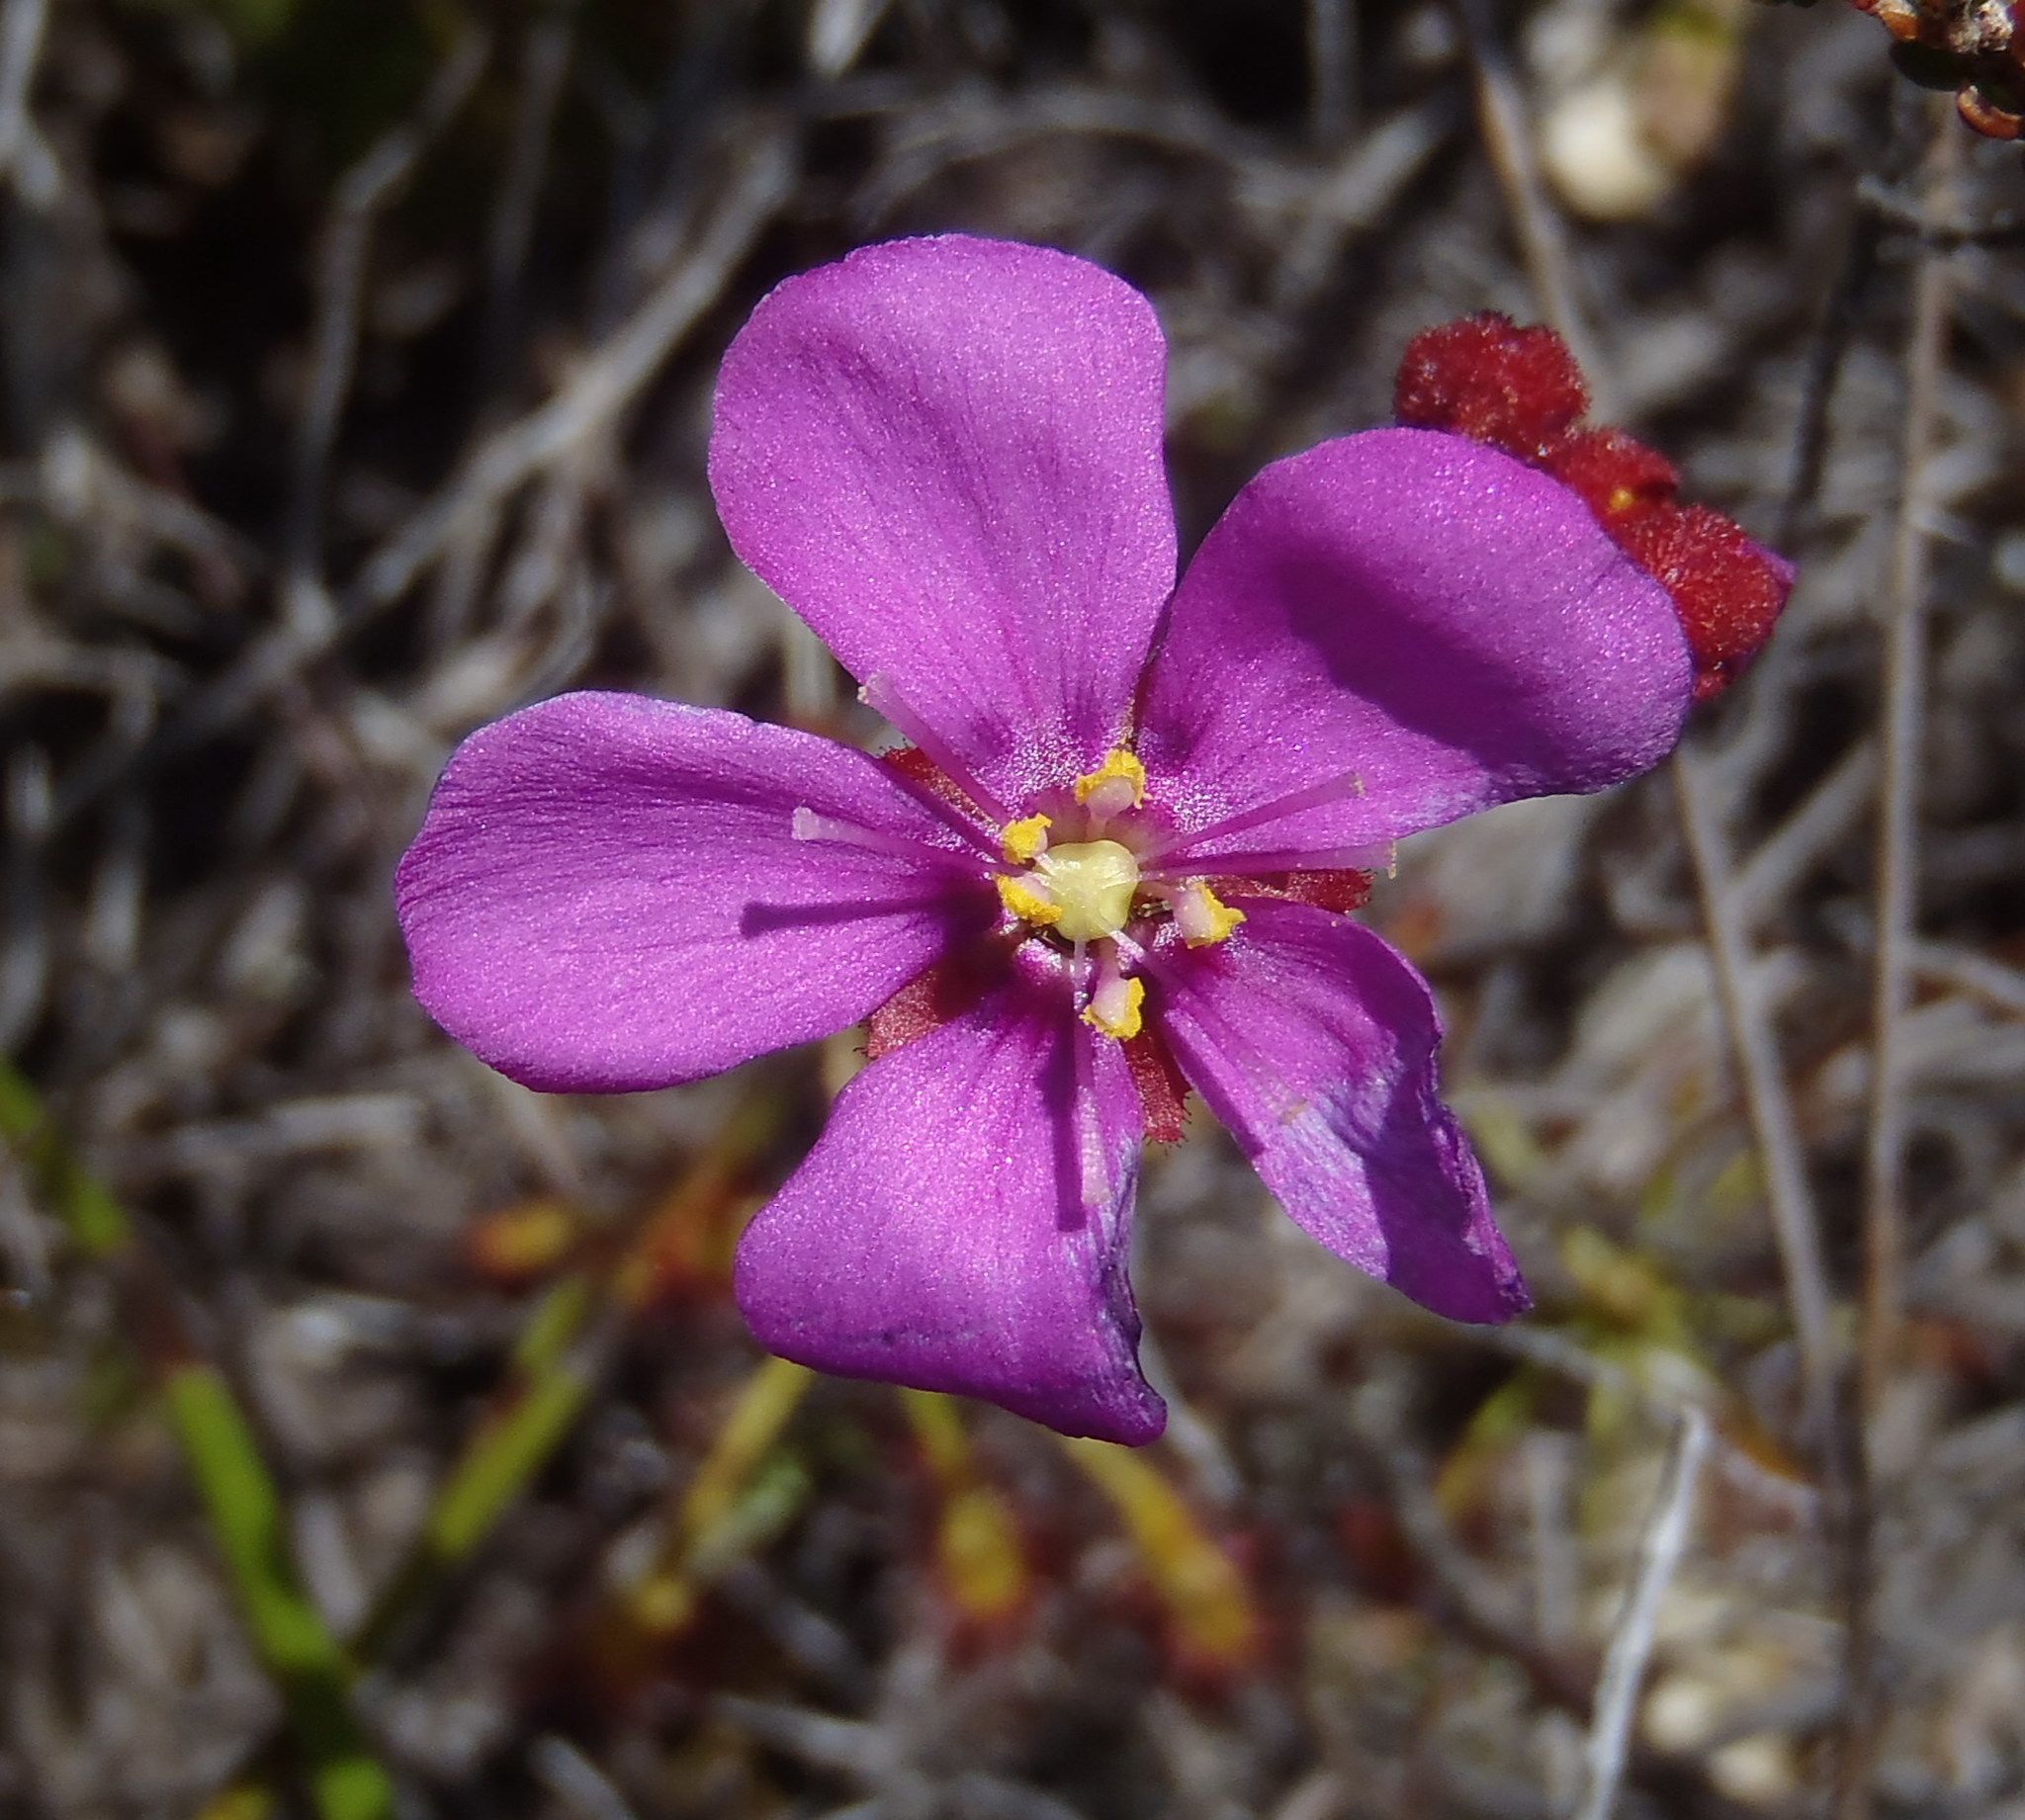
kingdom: Plantae
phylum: Tracheophyta
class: Magnoliopsida
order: Caryophyllales
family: Droseraceae
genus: Drosera
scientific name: Drosera glabripes
